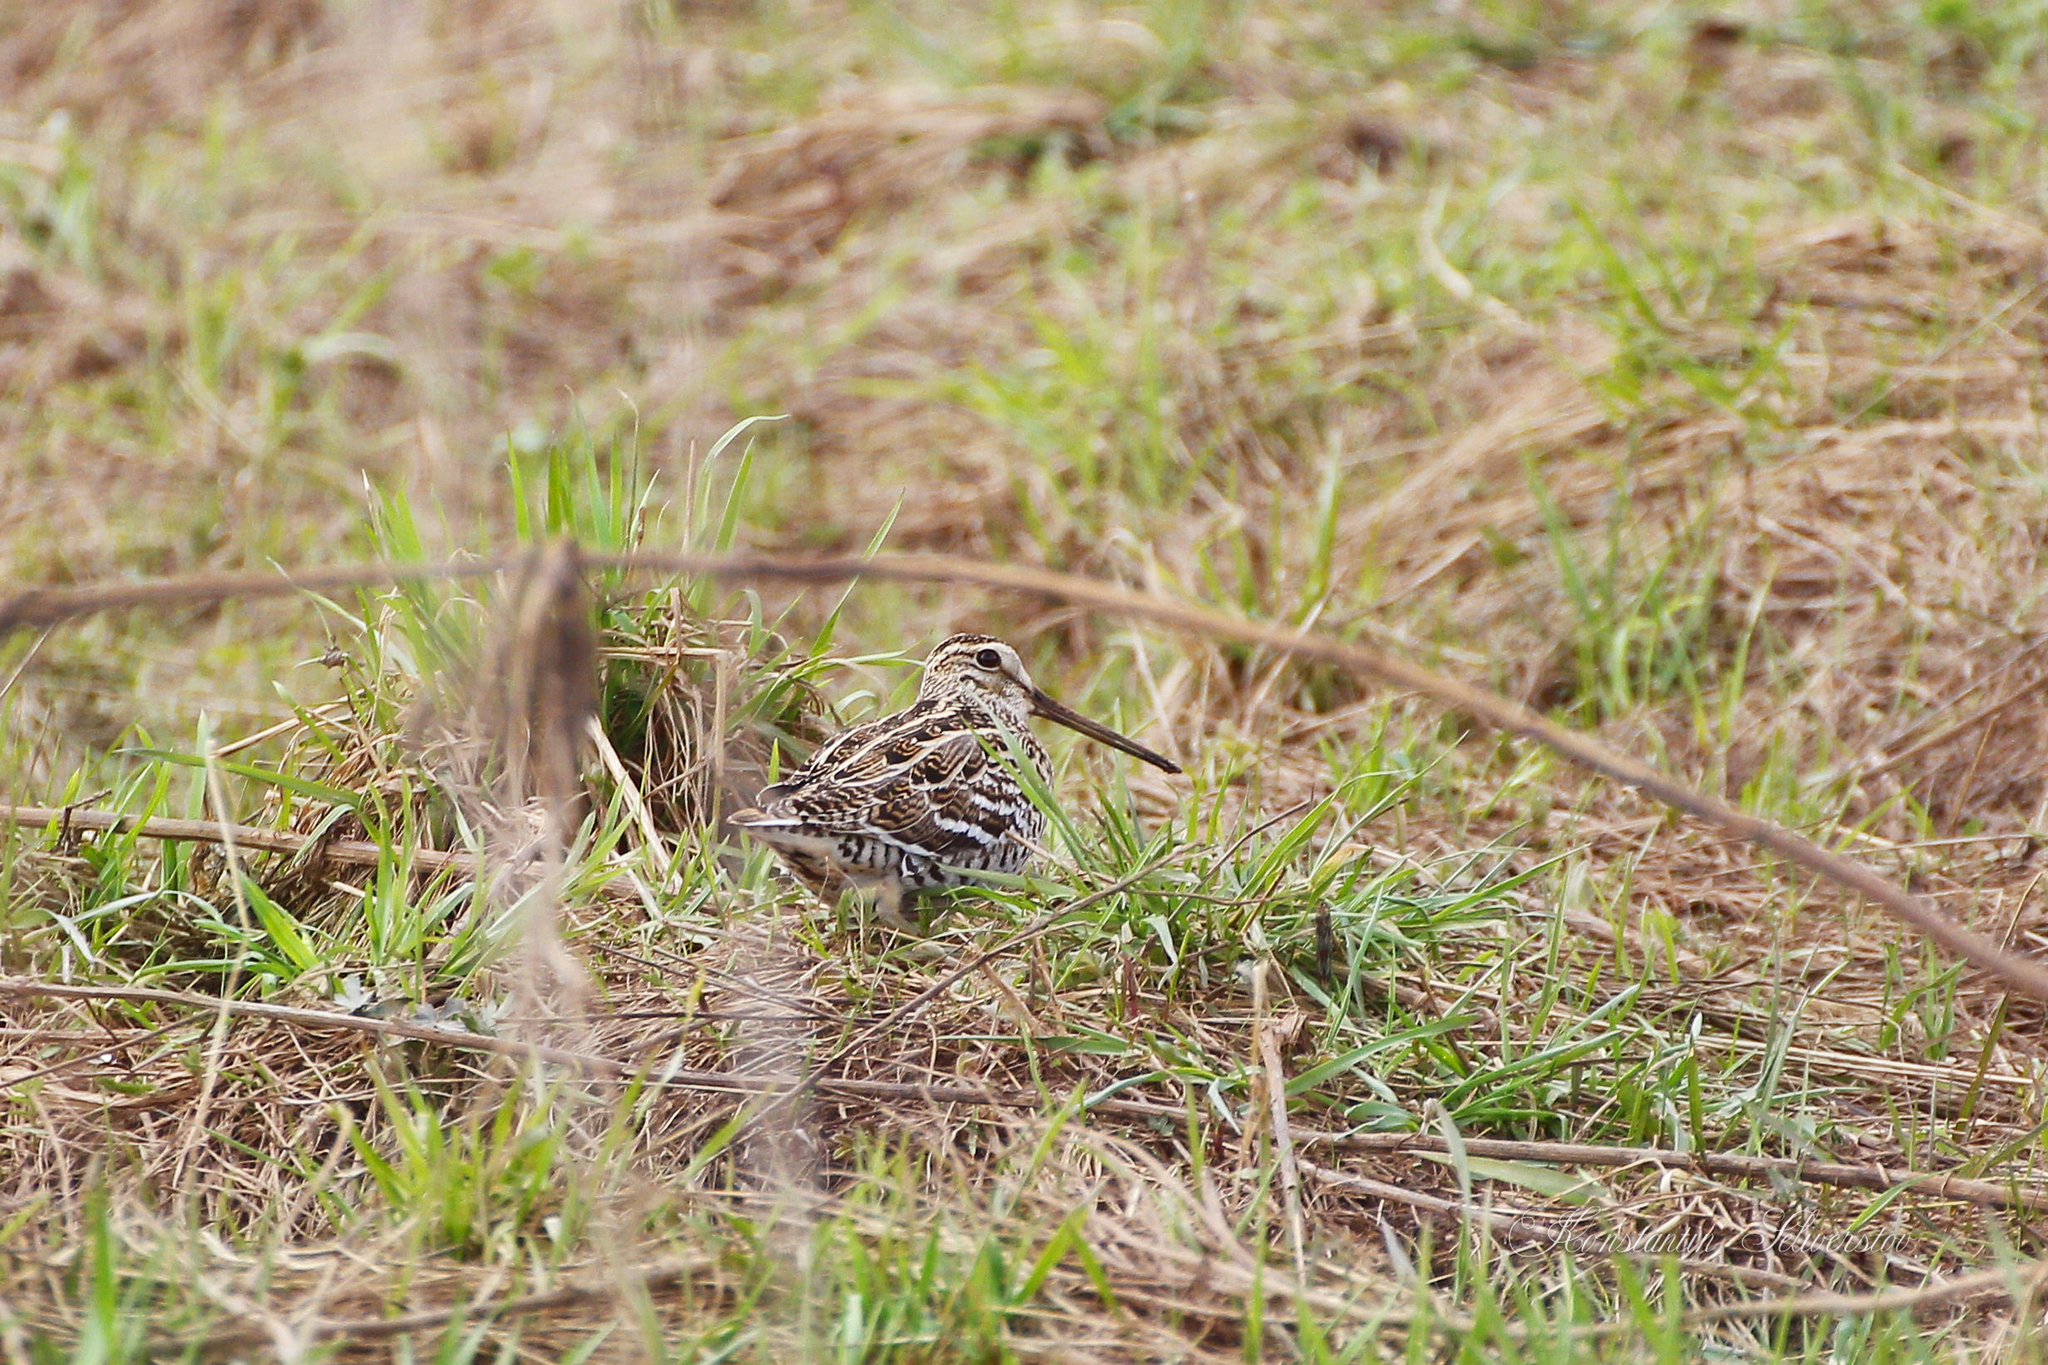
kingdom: Animalia
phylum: Chordata
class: Aves
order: Charadriiformes
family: Scolopacidae
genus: Gallinago
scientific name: Gallinago media
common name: Great snipe
